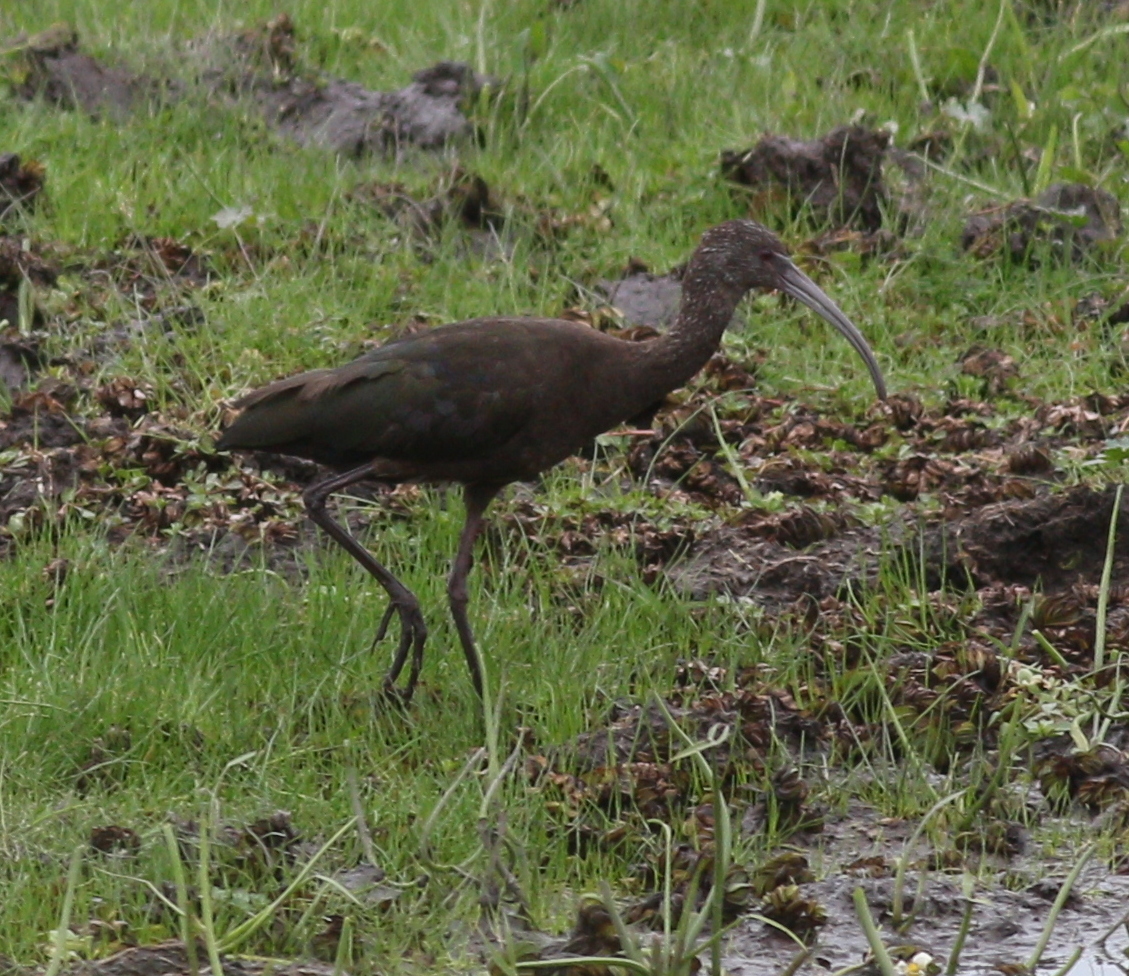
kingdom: Animalia
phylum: Chordata
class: Aves
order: Pelecaniformes
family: Threskiornithidae
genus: Plegadis
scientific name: Plegadis chihi
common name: White-faced ibis
